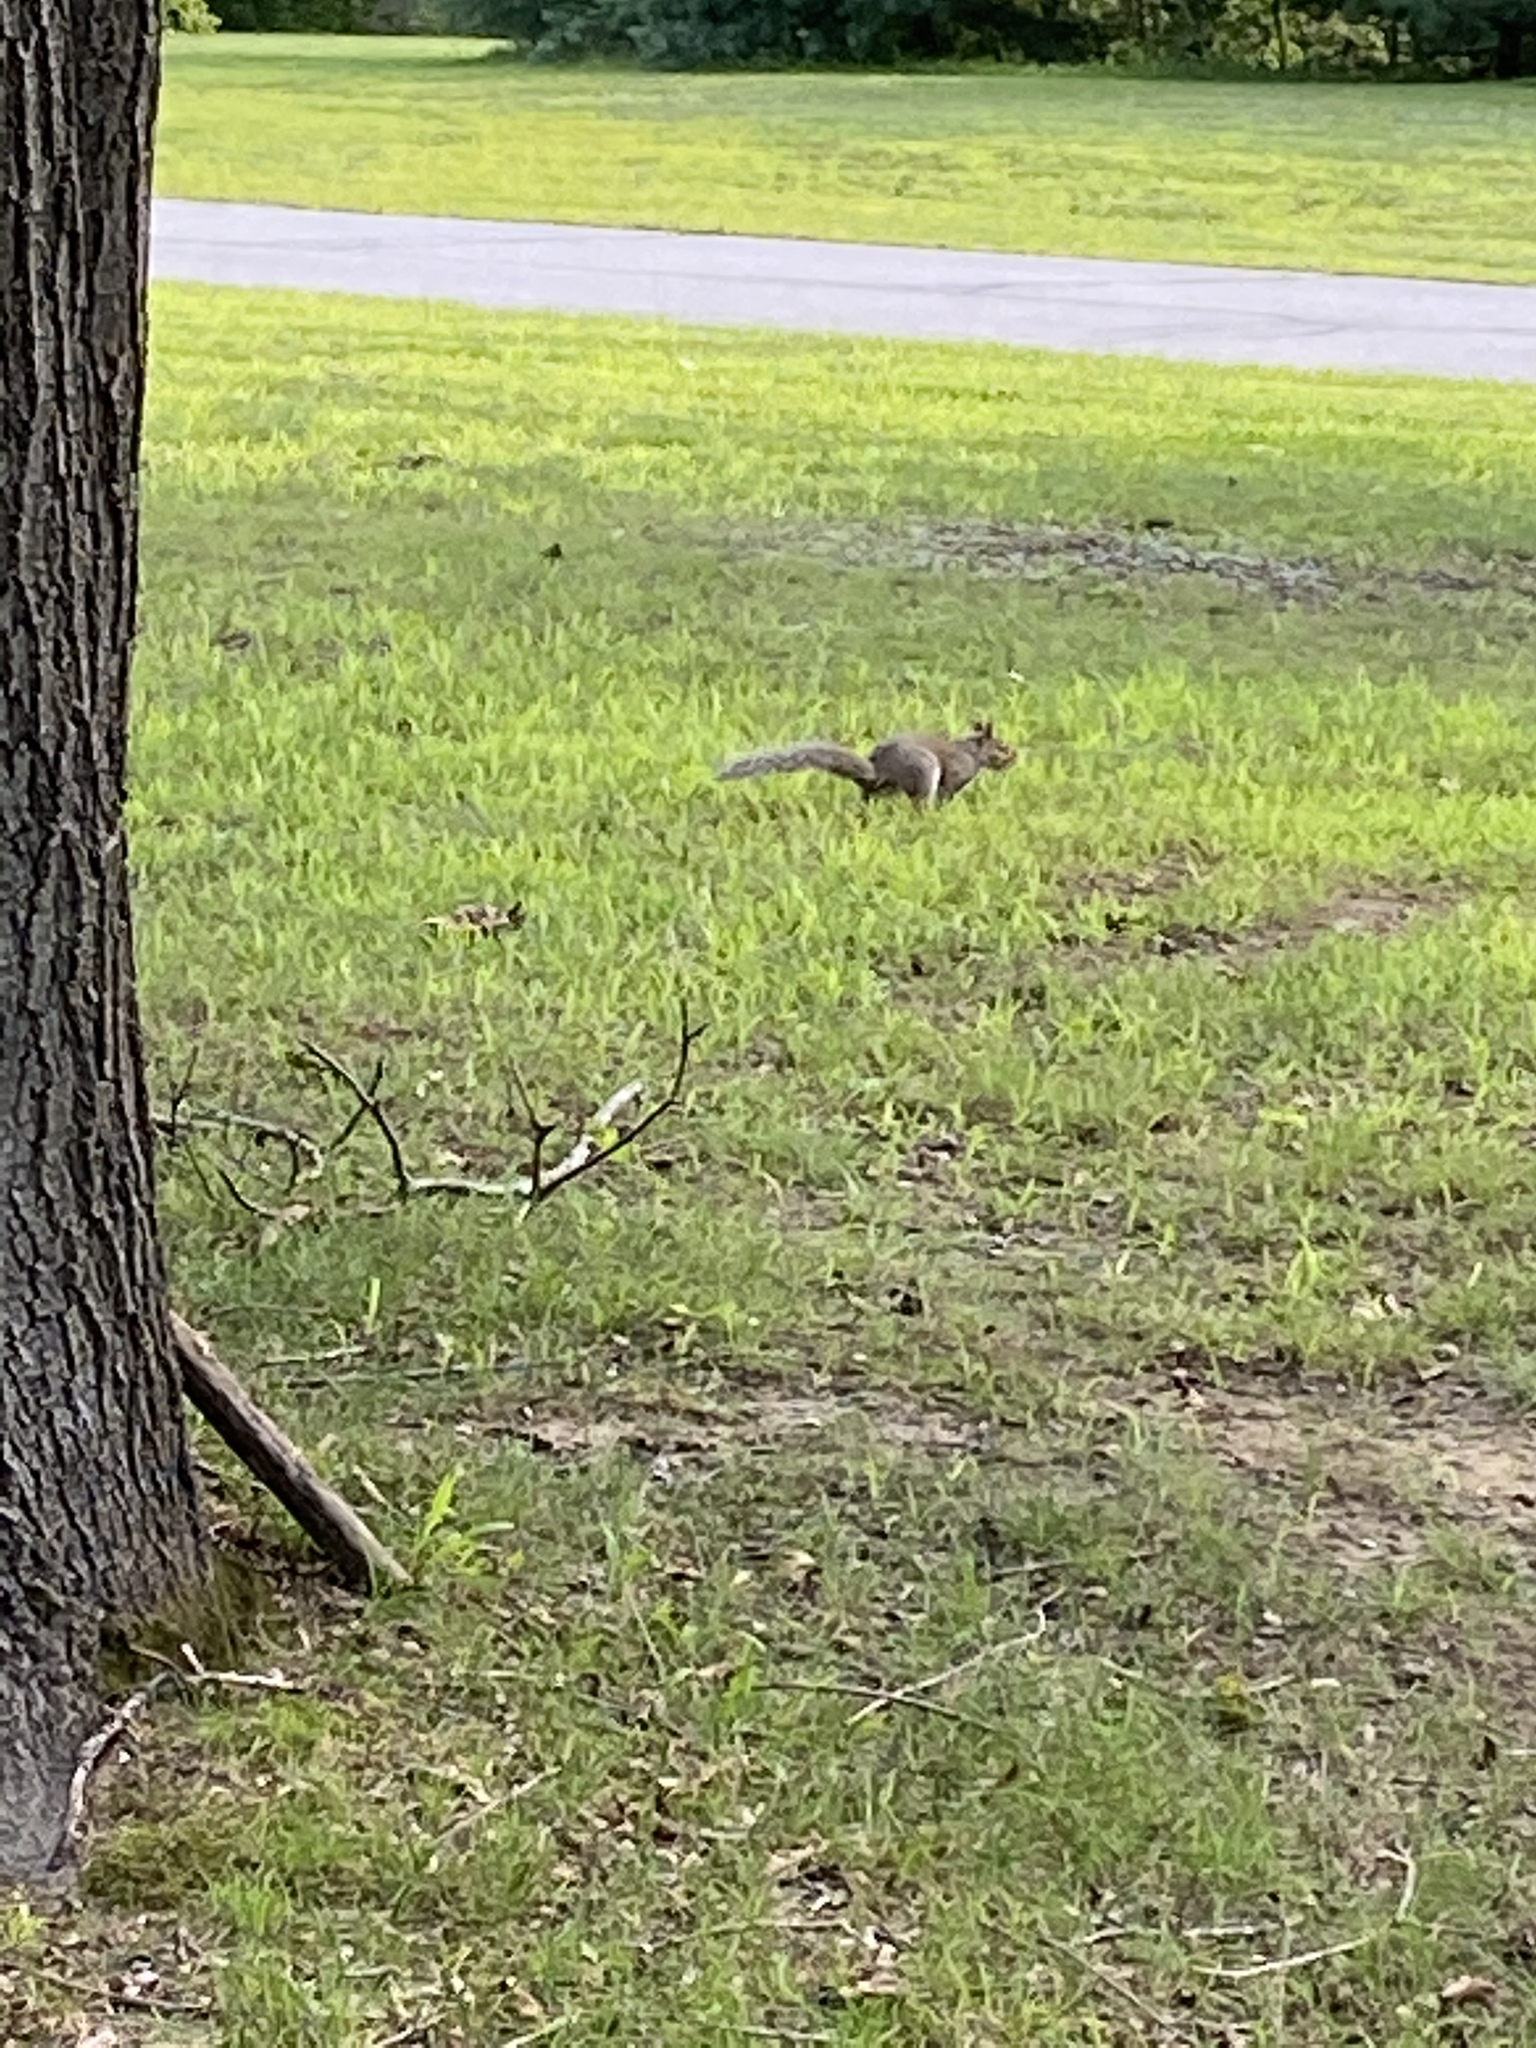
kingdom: Animalia
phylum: Chordata
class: Mammalia
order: Rodentia
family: Sciuridae
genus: Sciurus
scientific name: Sciurus carolinensis
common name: Eastern gray squirrel
